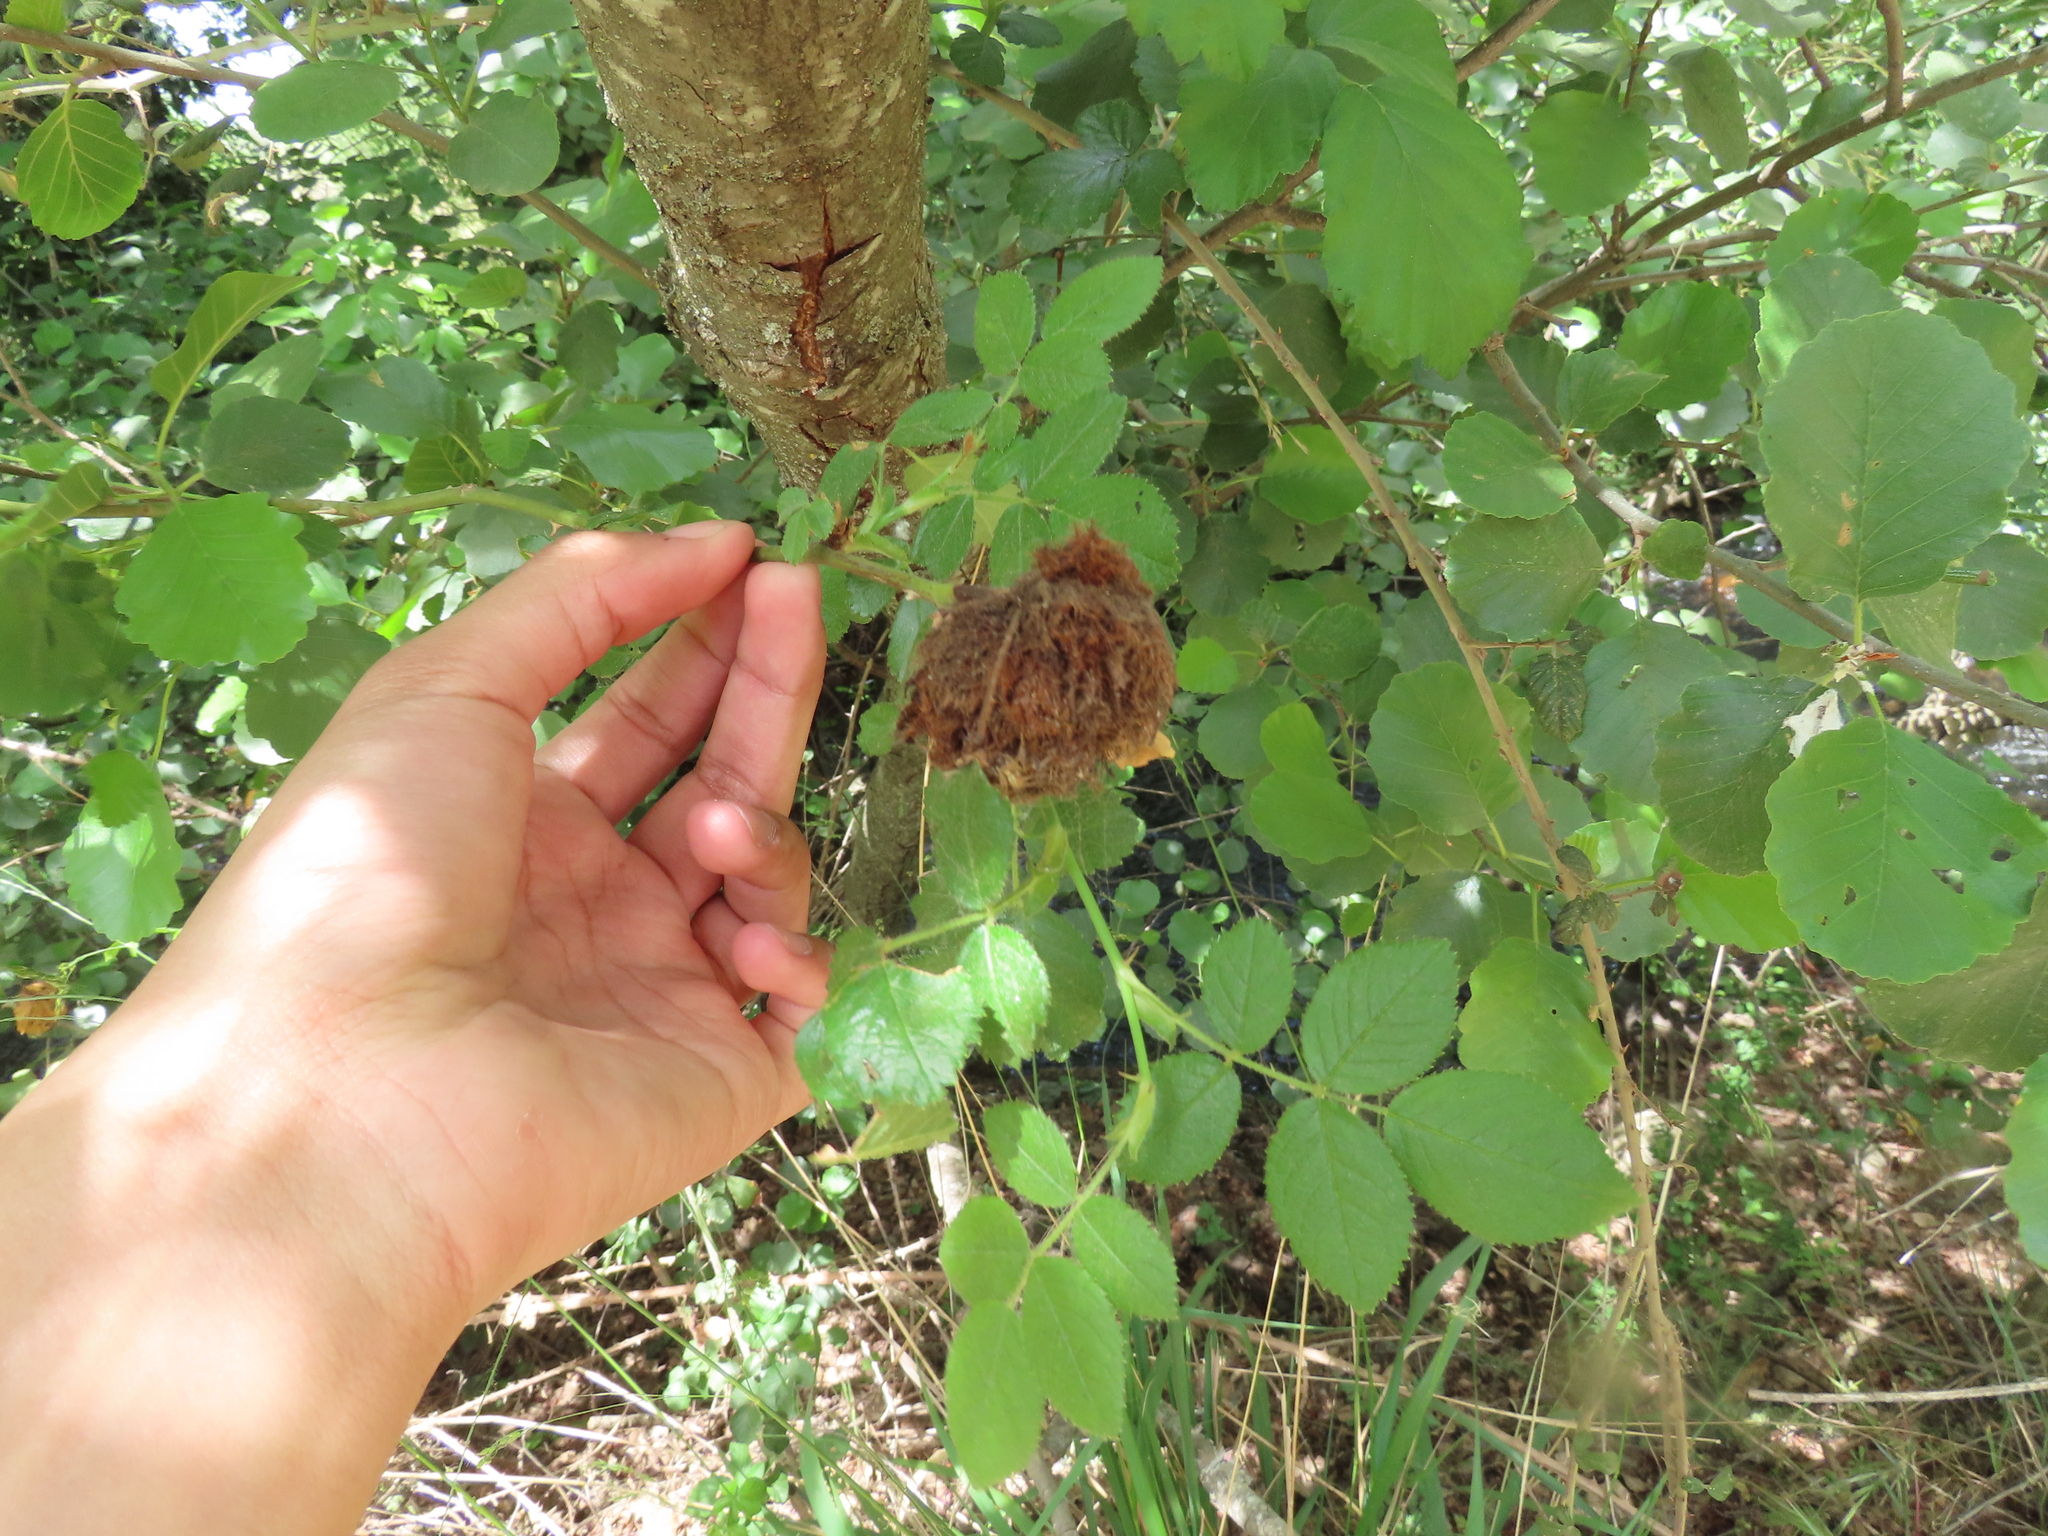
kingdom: Animalia
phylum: Arthropoda
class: Insecta
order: Hymenoptera
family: Cynipidae
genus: Diplolepis
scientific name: Diplolepis rosae
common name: Bedeguar gall
